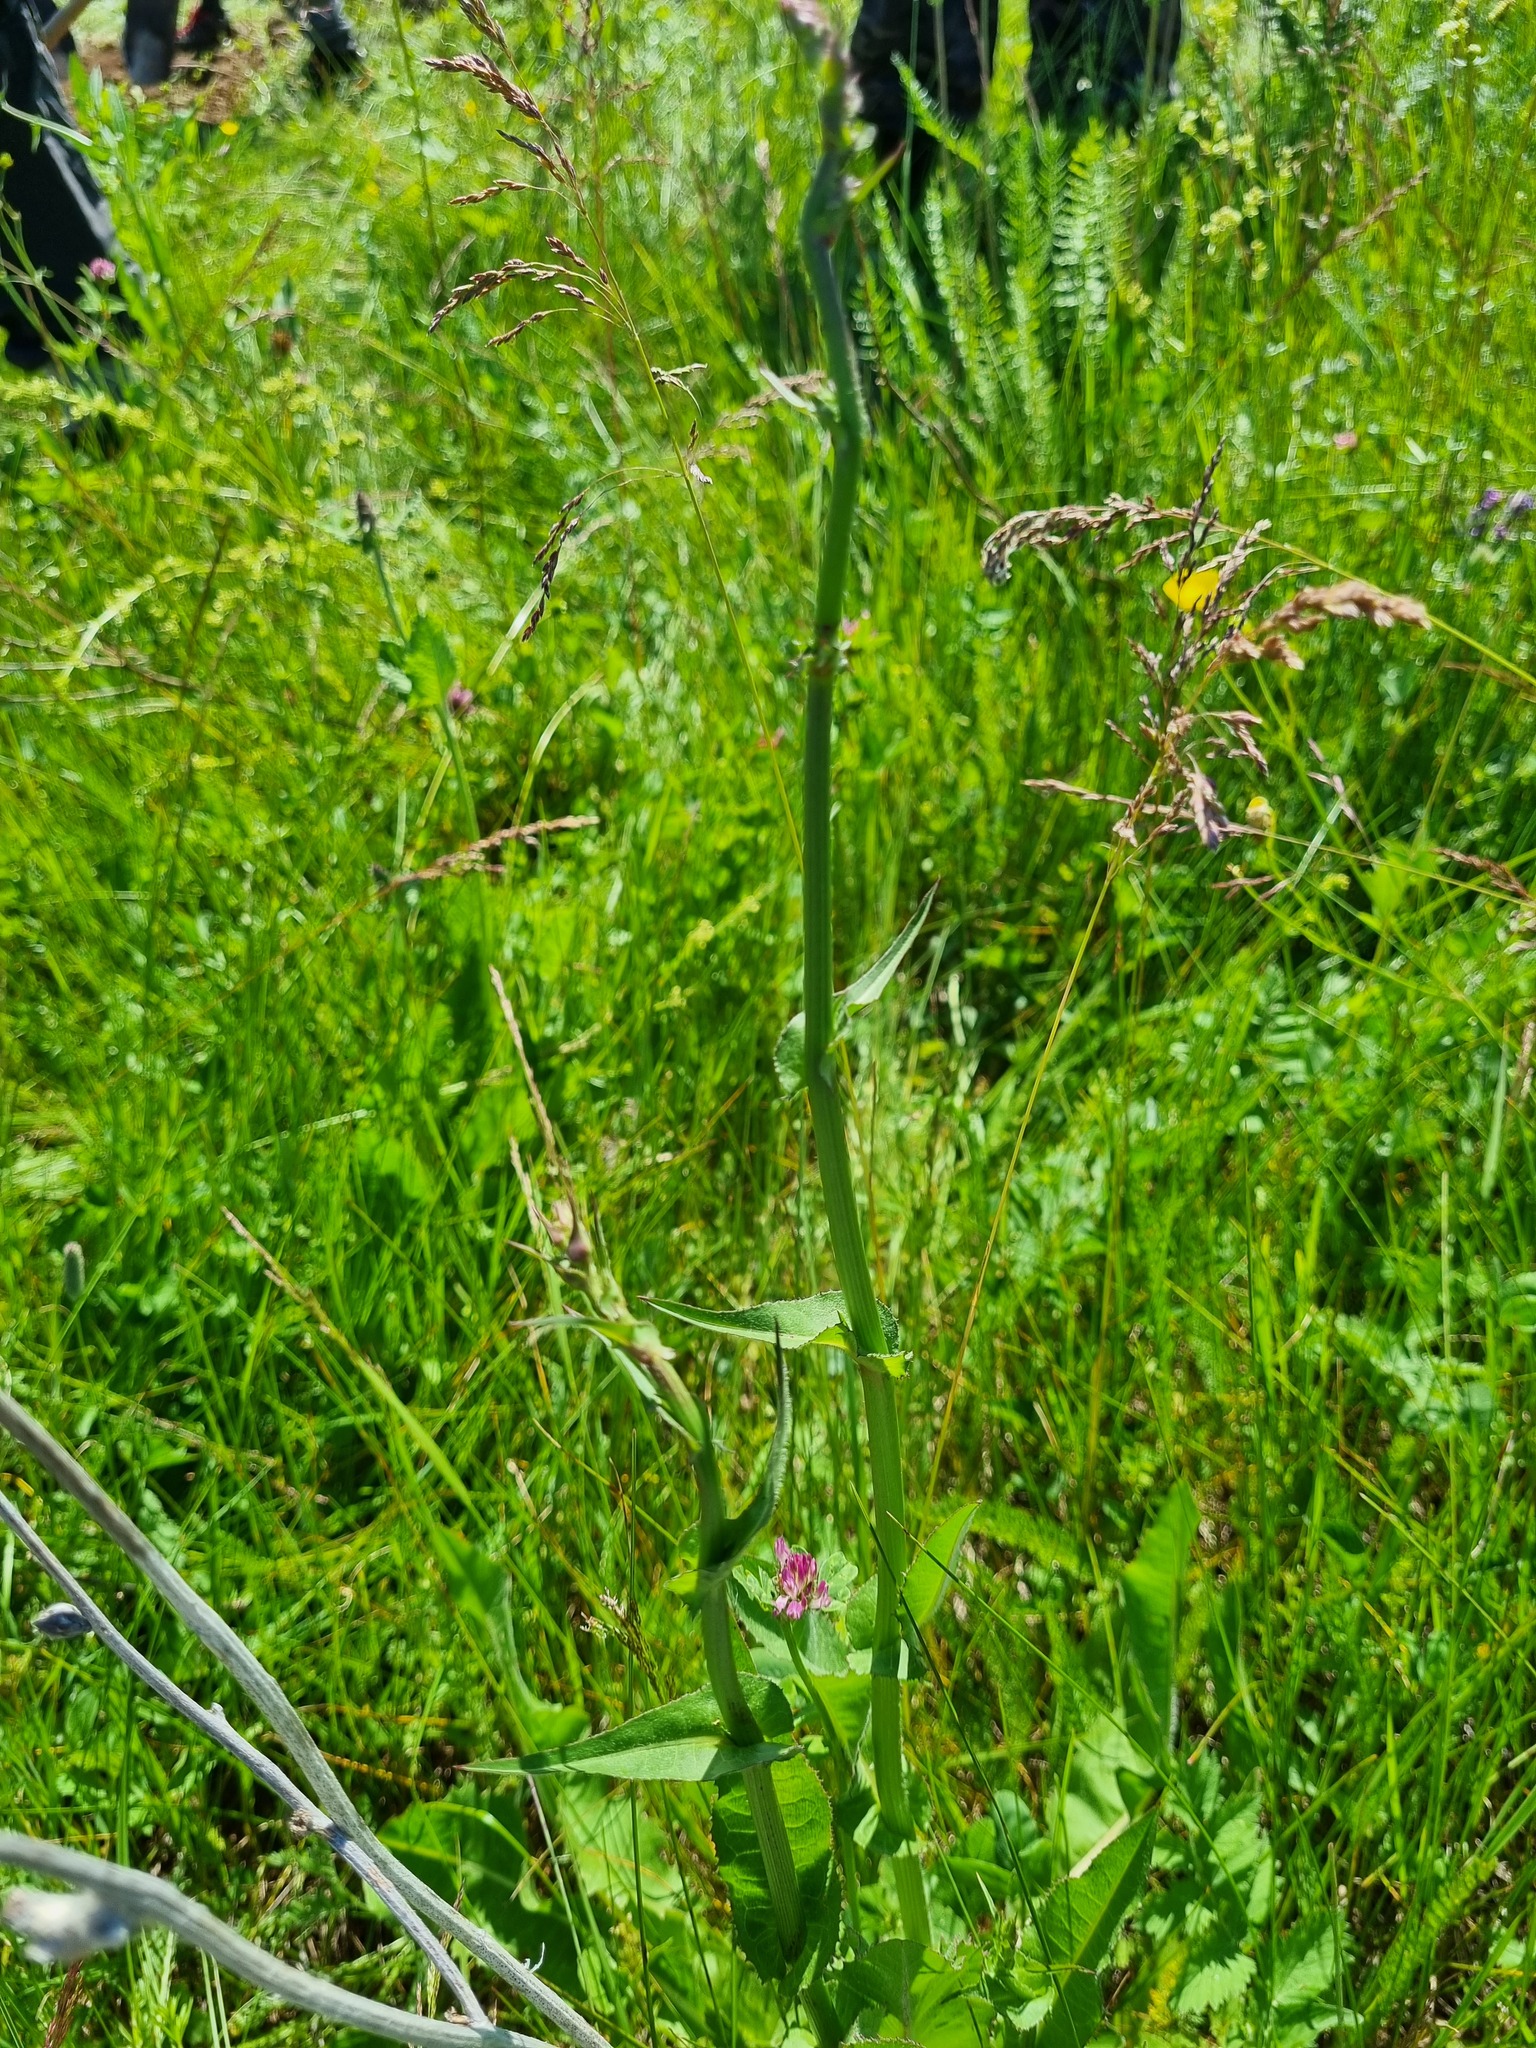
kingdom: Plantae
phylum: Tracheophyta
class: Magnoliopsida
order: Asterales
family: Asteraceae
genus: Cichorium
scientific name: Cichorium intybus
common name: Chicory
